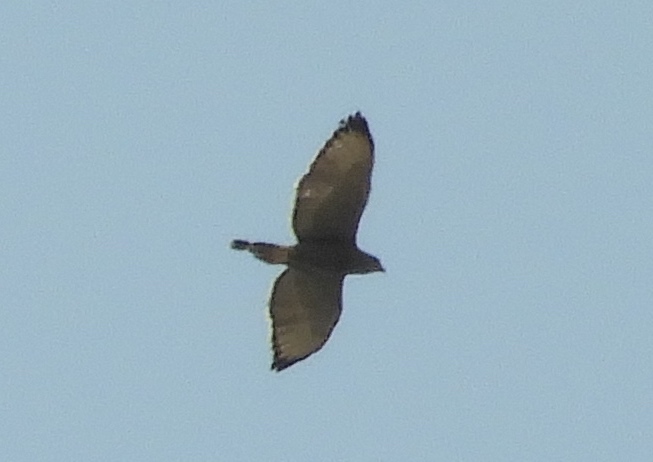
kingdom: Animalia
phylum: Chordata
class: Aves
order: Accipitriformes
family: Accipitridae
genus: Buteo
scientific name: Buteo nitidus
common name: Grey-lined hawk
